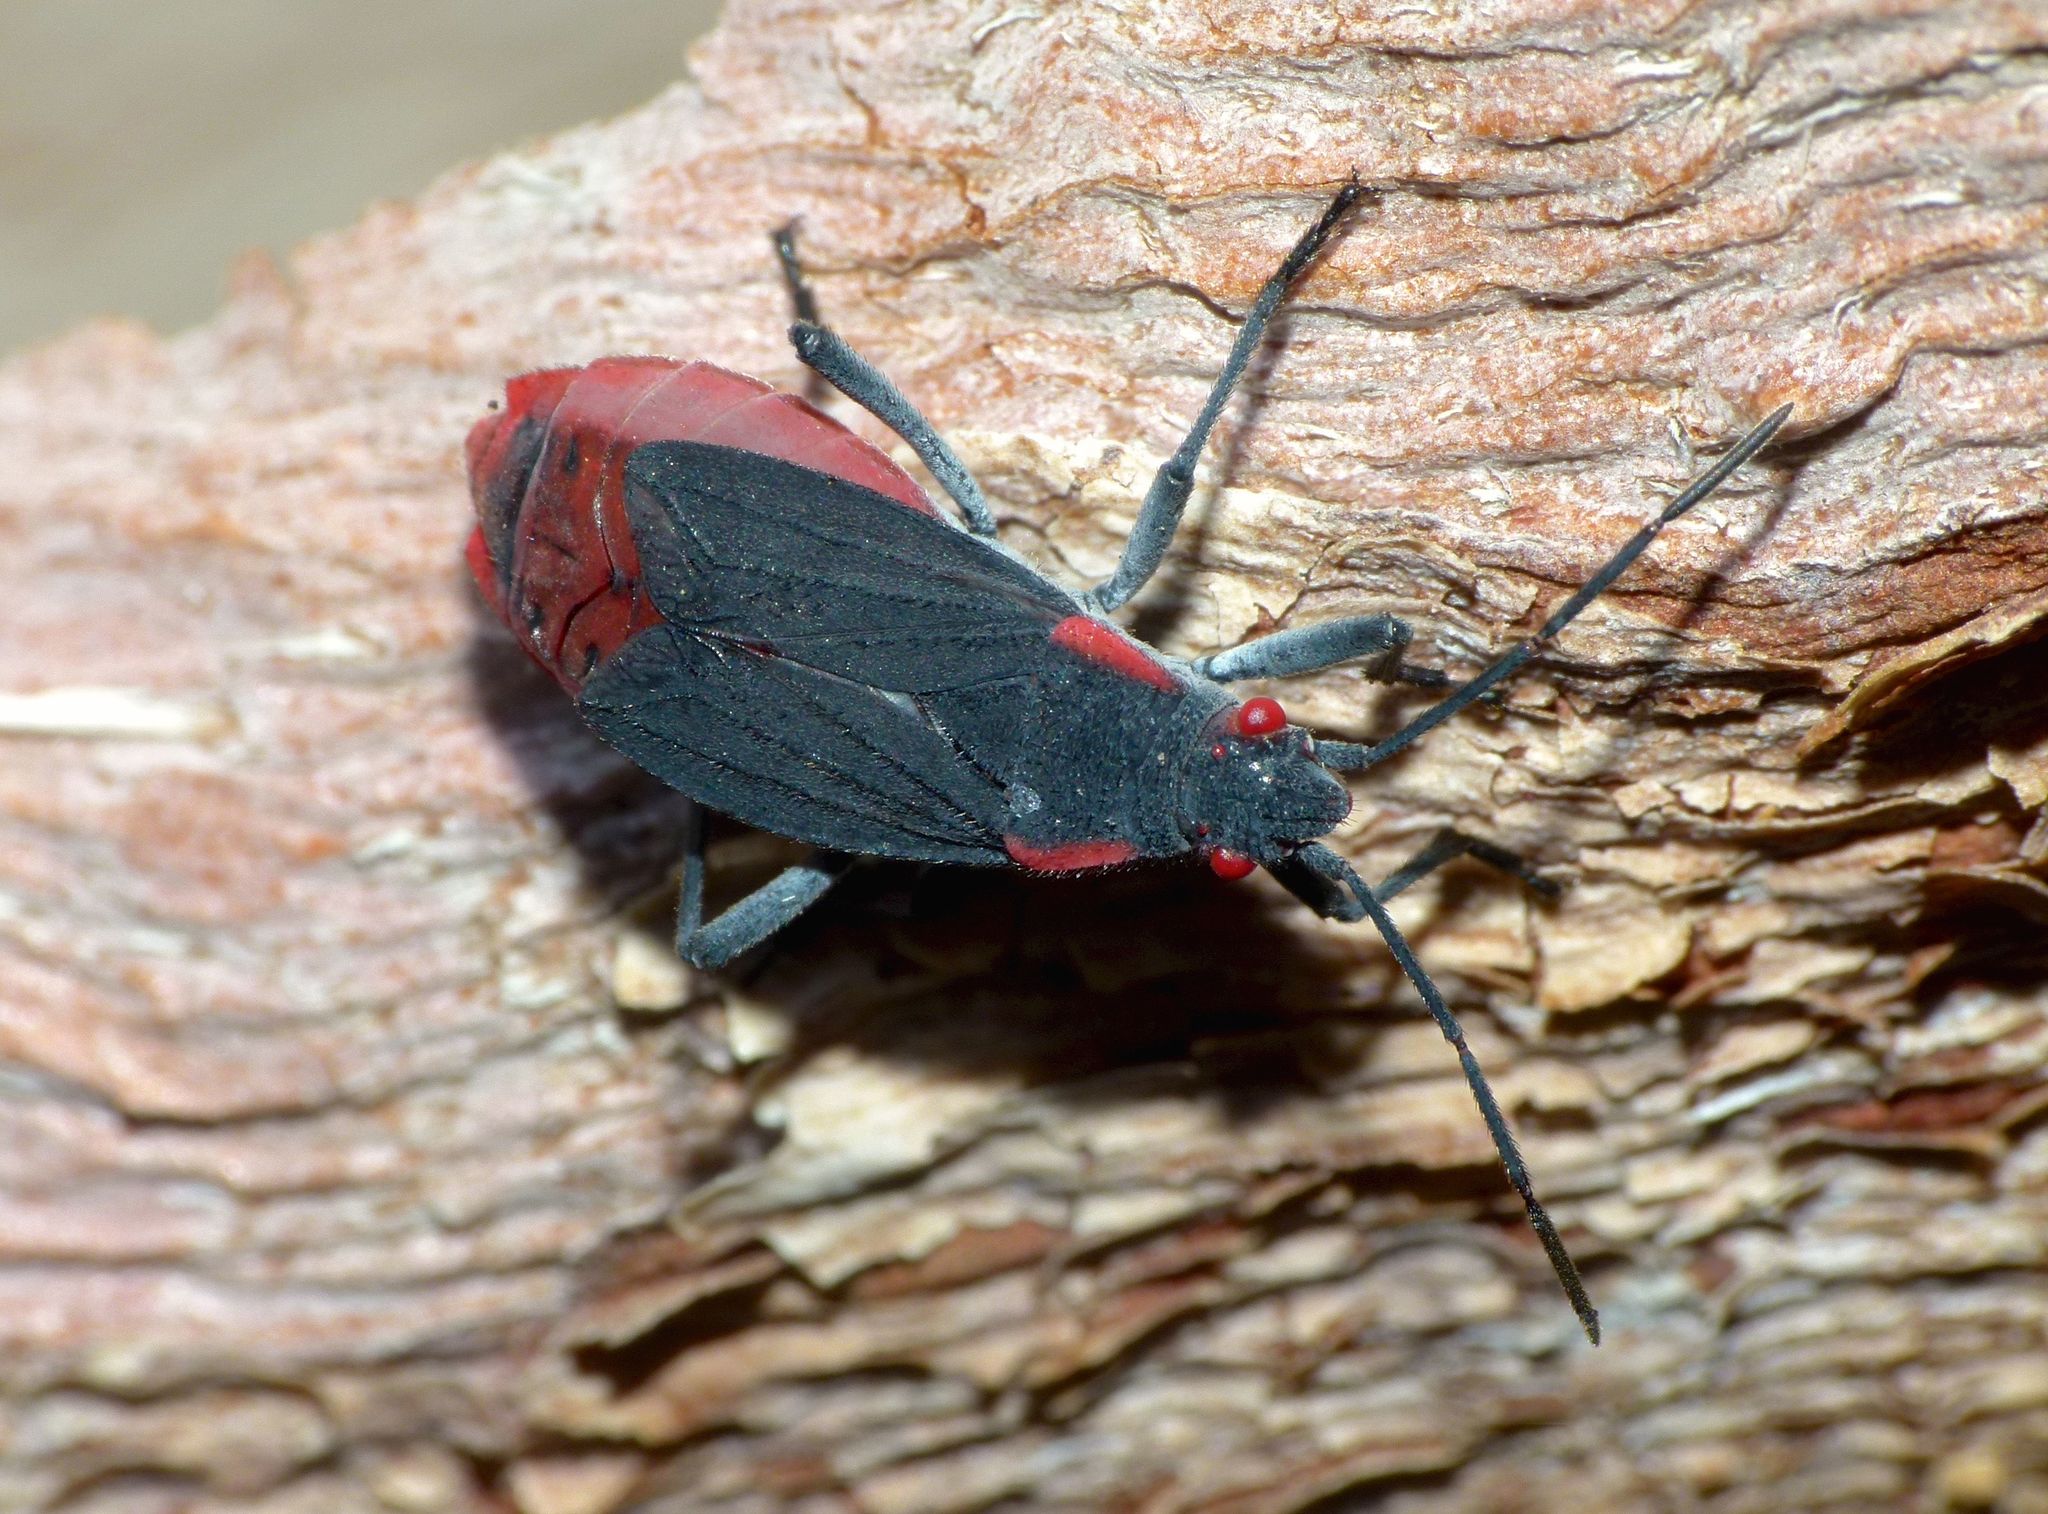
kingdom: Animalia
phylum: Arthropoda
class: Insecta
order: Hemiptera
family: Rhopalidae
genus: Jadera
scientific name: Jadera haematoloma
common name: Red-shouldered bug
